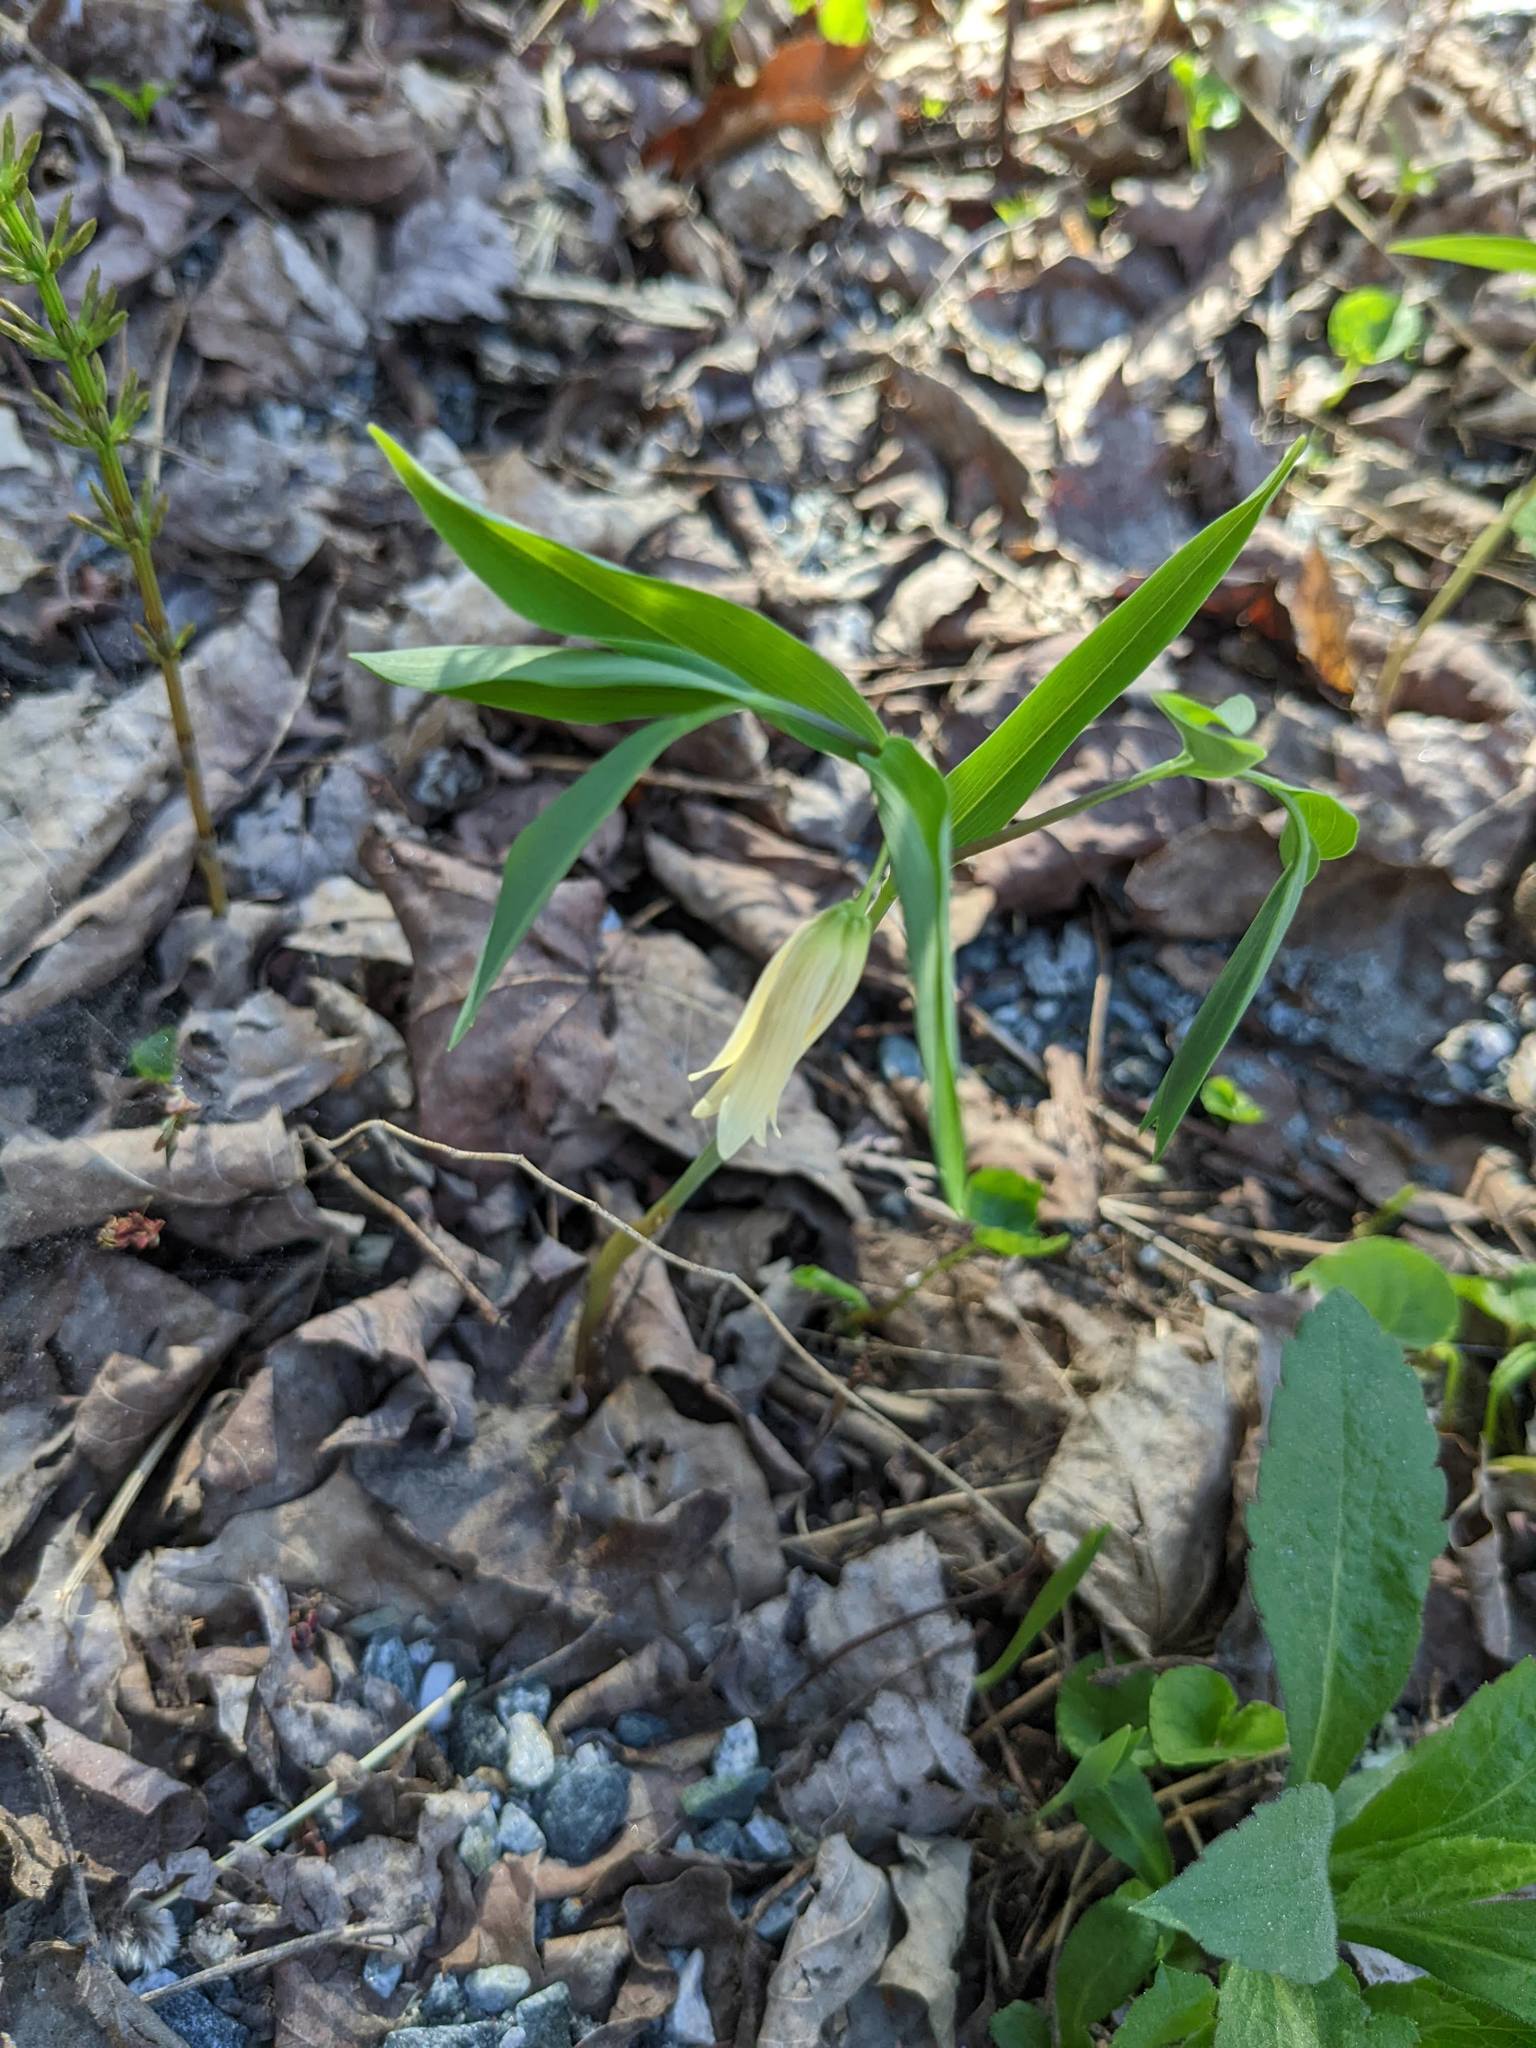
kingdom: Plantae
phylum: Tracheophyta
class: Liliopsida
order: Liliales
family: Colchicaceae
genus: Uvularia
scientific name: Uvularia sessilifolia
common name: Straw-lily
